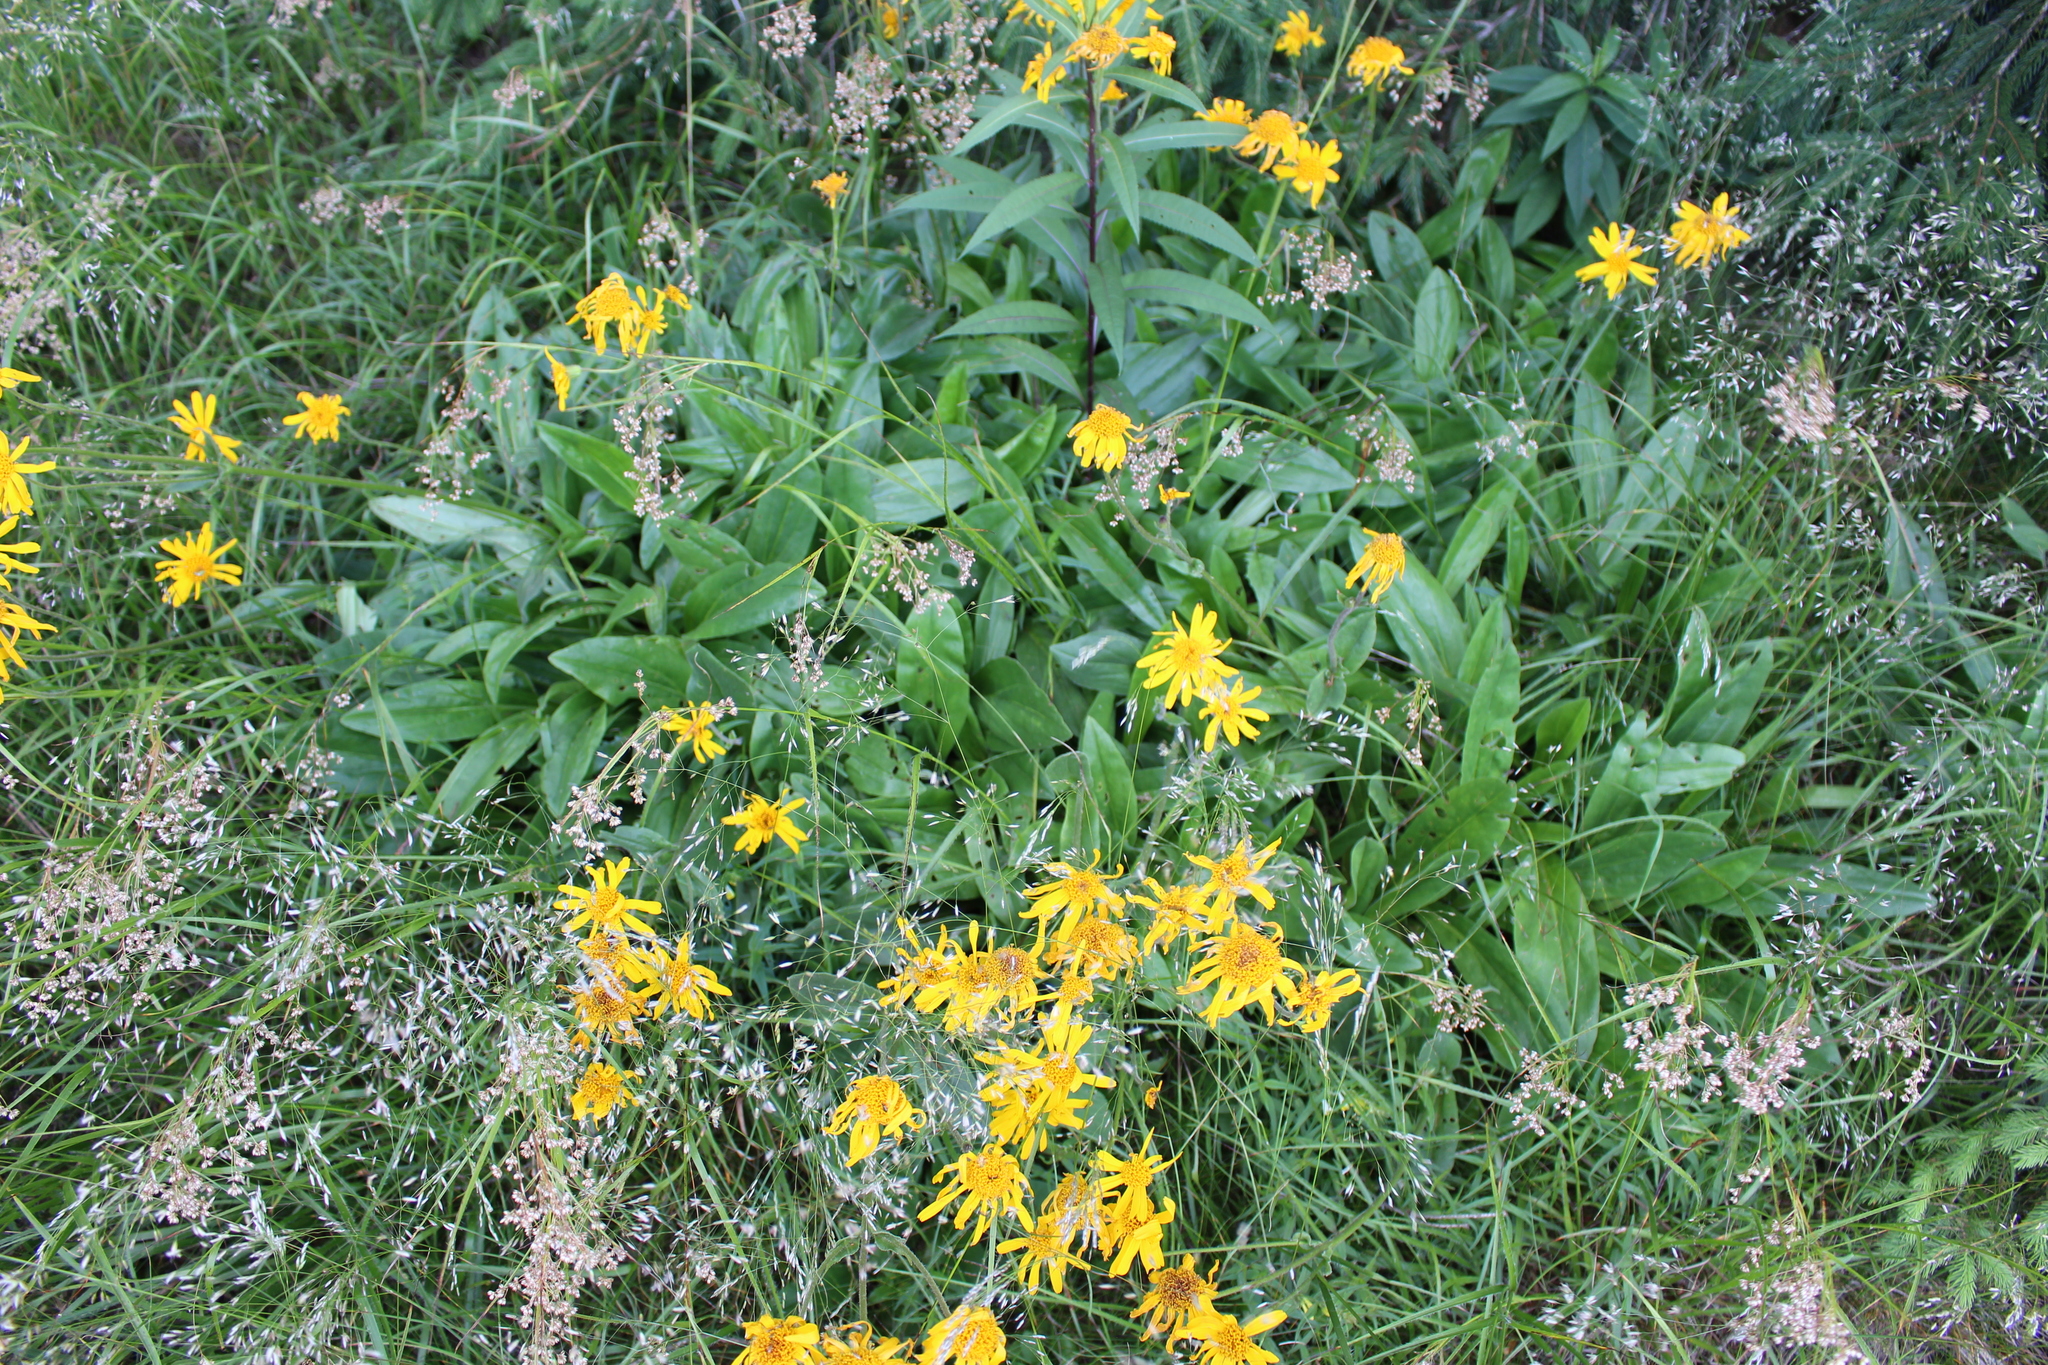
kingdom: Plantae
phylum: Tracheophyta
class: Magnoliopsida
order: Asterales
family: Asteraceae
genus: Arnica
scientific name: Arnica montana
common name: Leopard's bane
